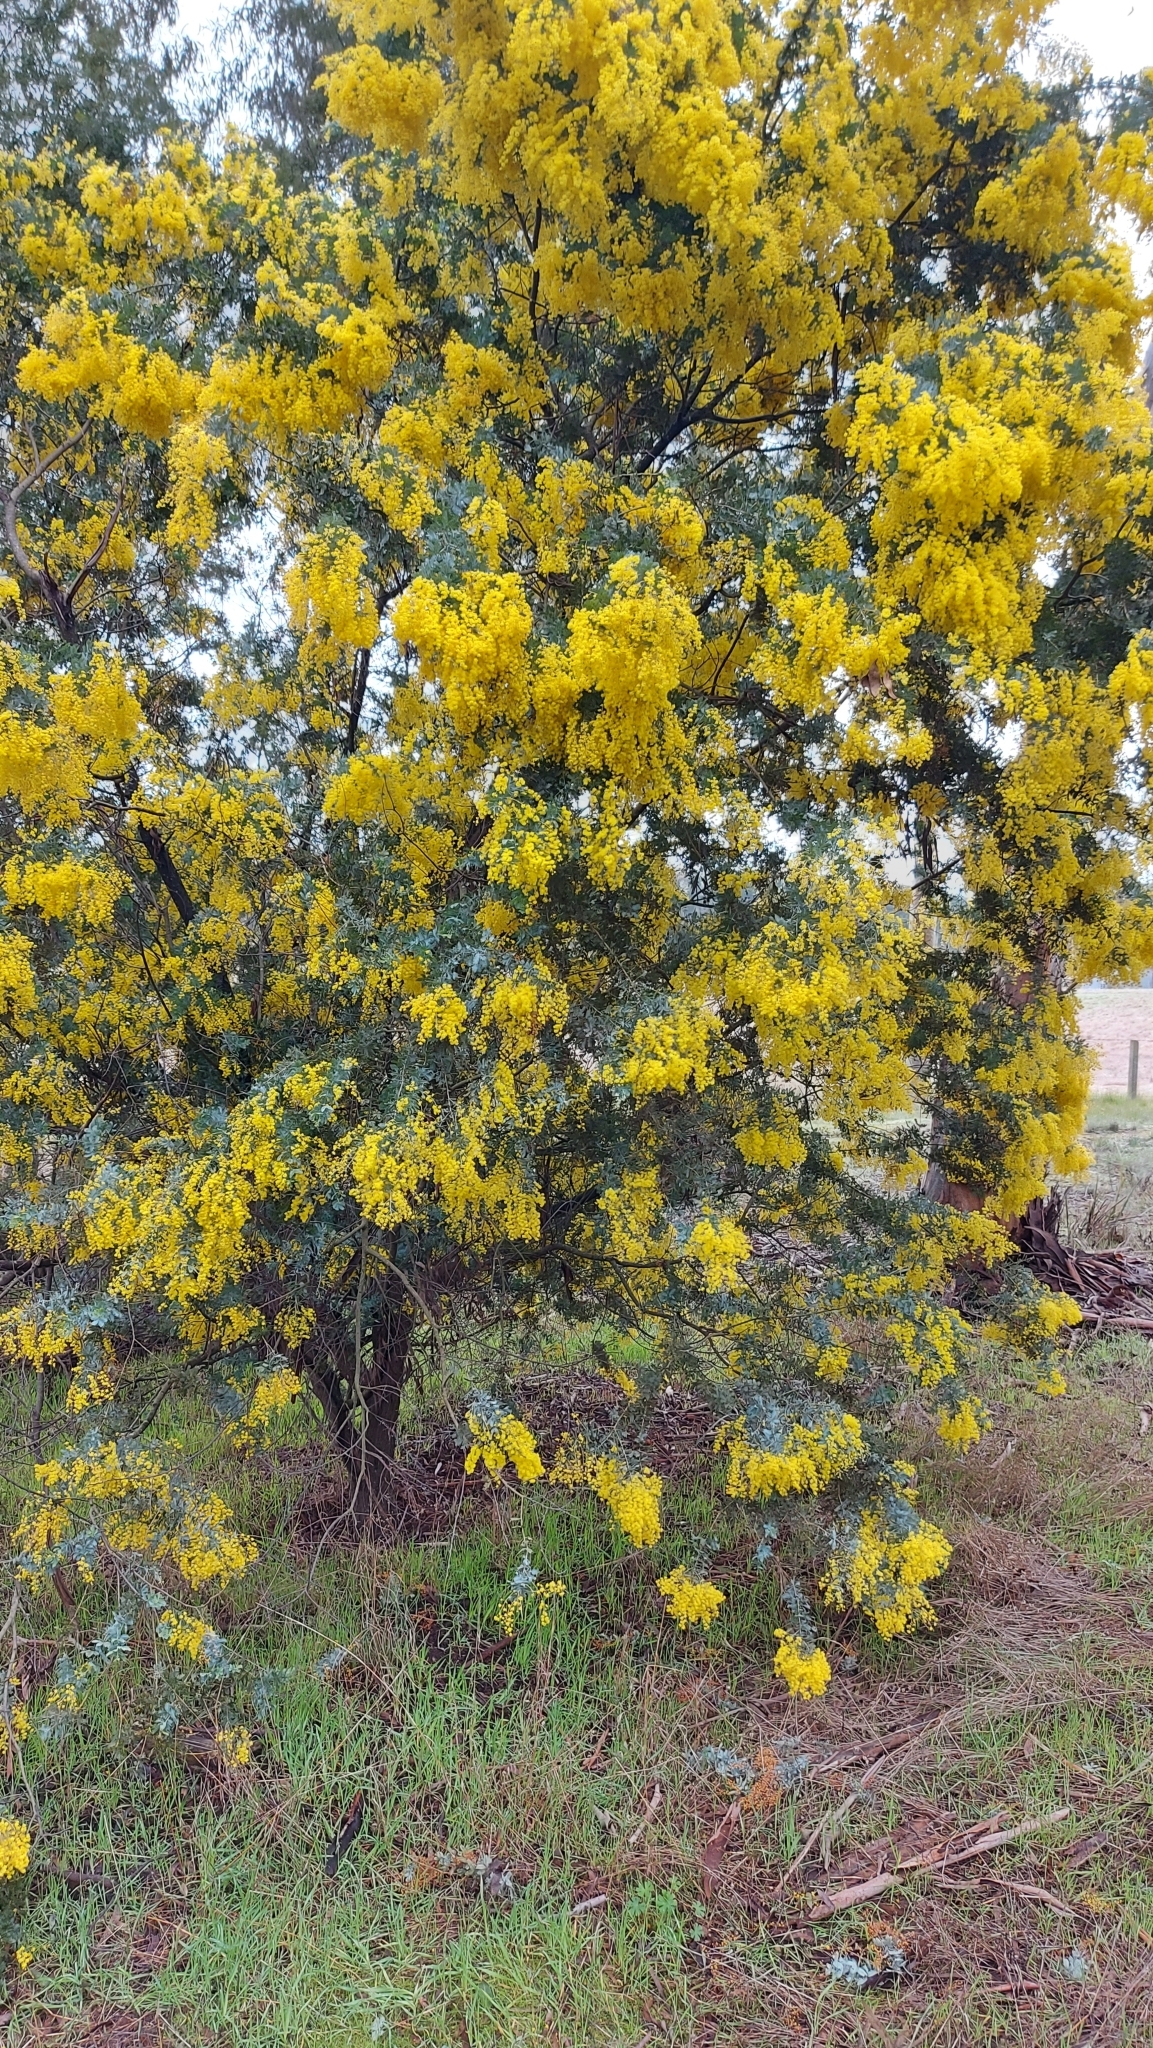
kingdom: Plantae
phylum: Tracheophyta
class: Magnoliopsida
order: Fabales
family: Fabaceae
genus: Acacia
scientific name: Acacia baileyana
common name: Cootamundra wattle
